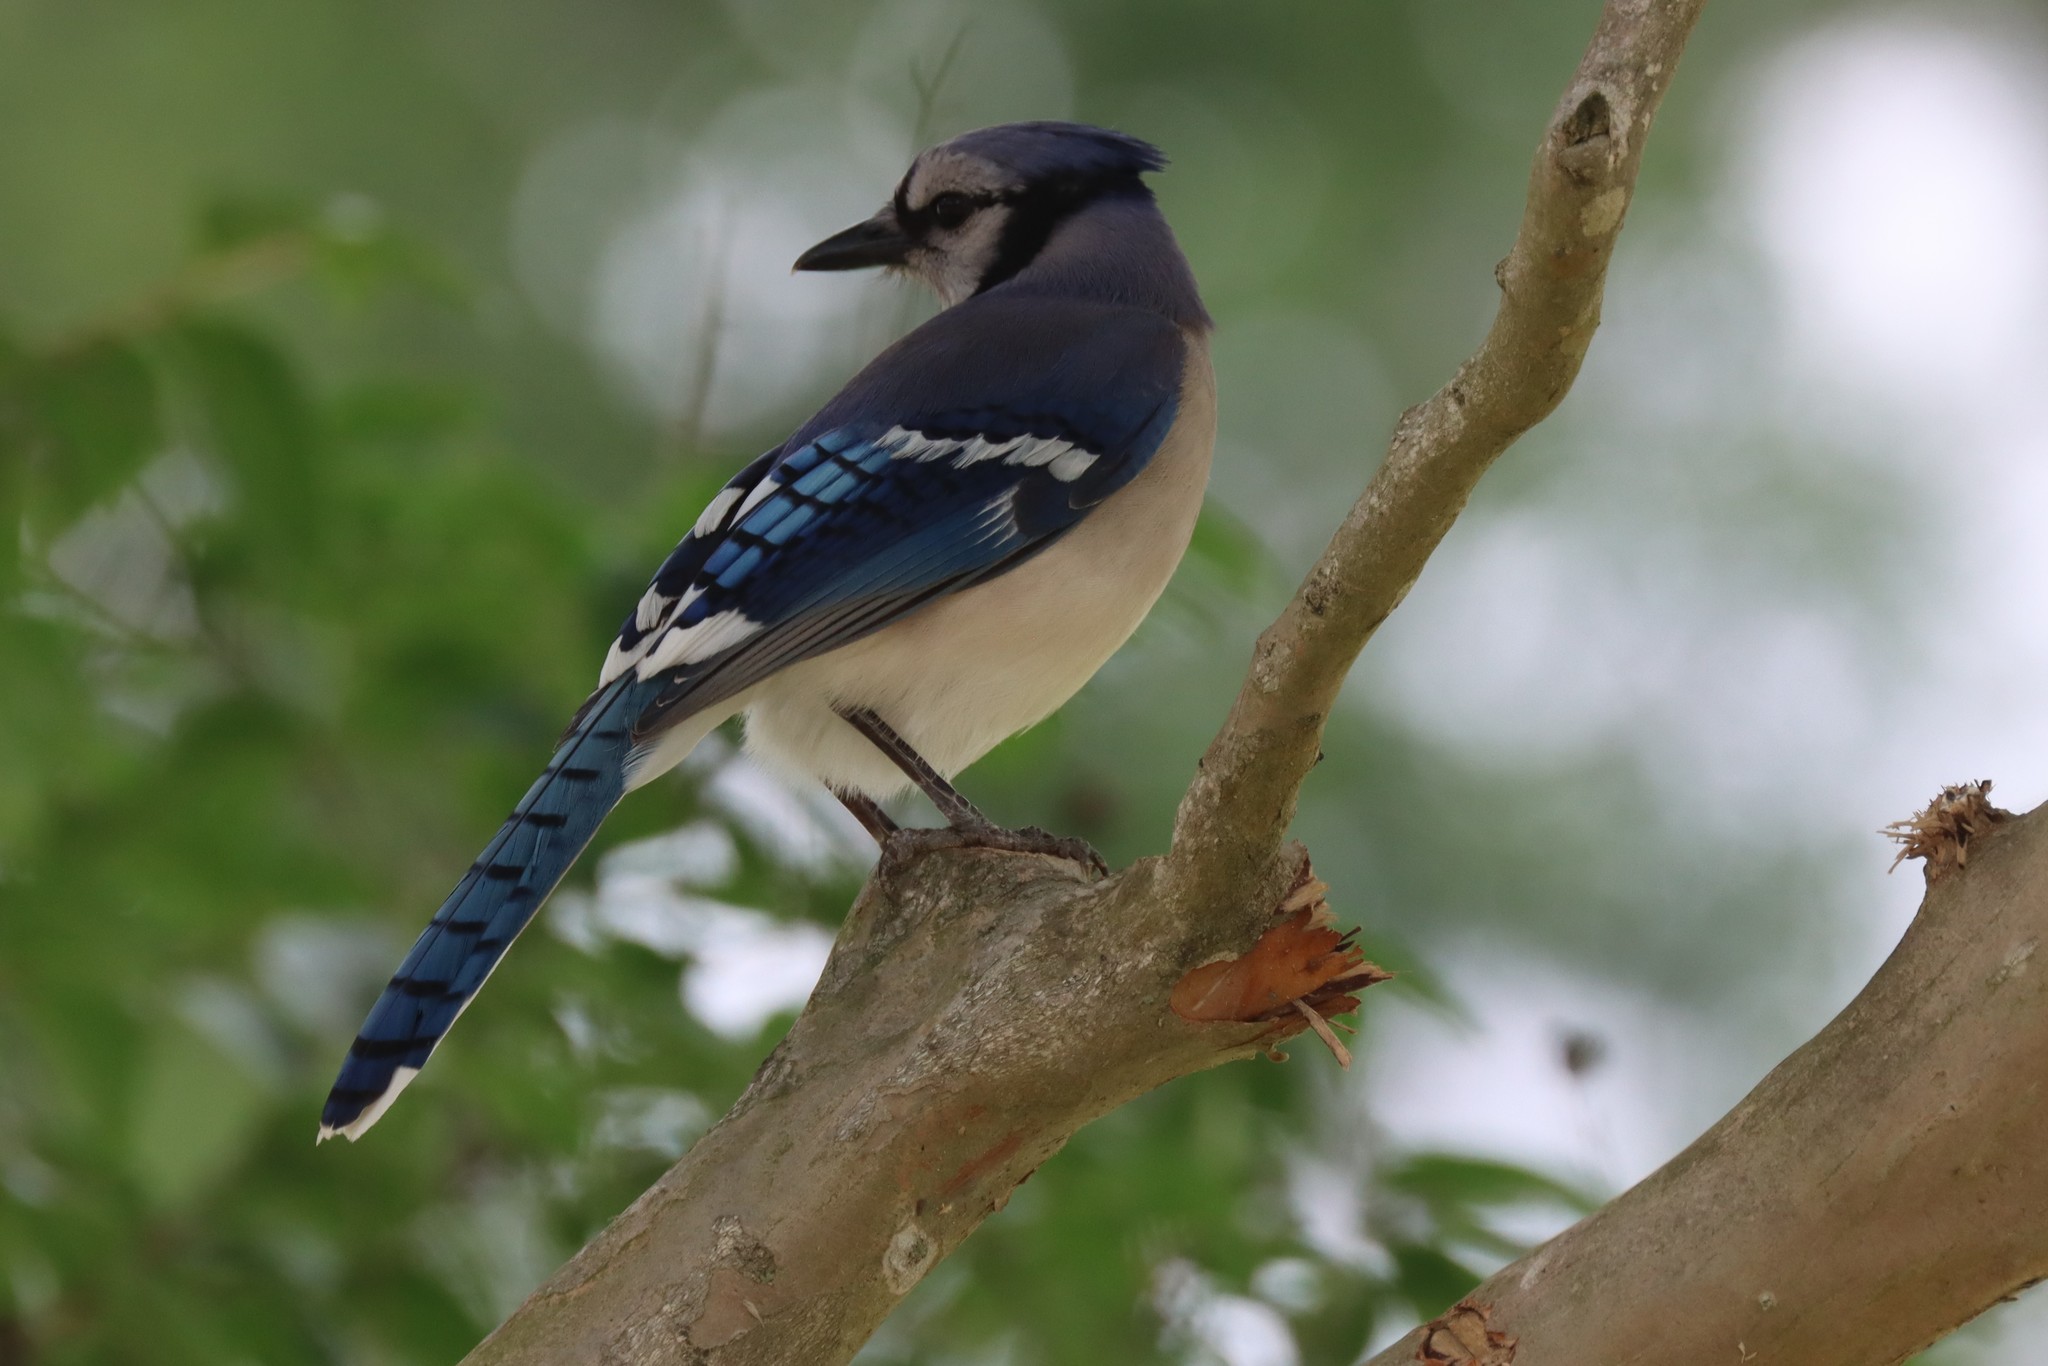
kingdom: Animalia
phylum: Chordata
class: Aves
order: Passeriformes
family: Corvidae
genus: Cyanocitta
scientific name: Cyanocitta cristata
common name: Blue jay
